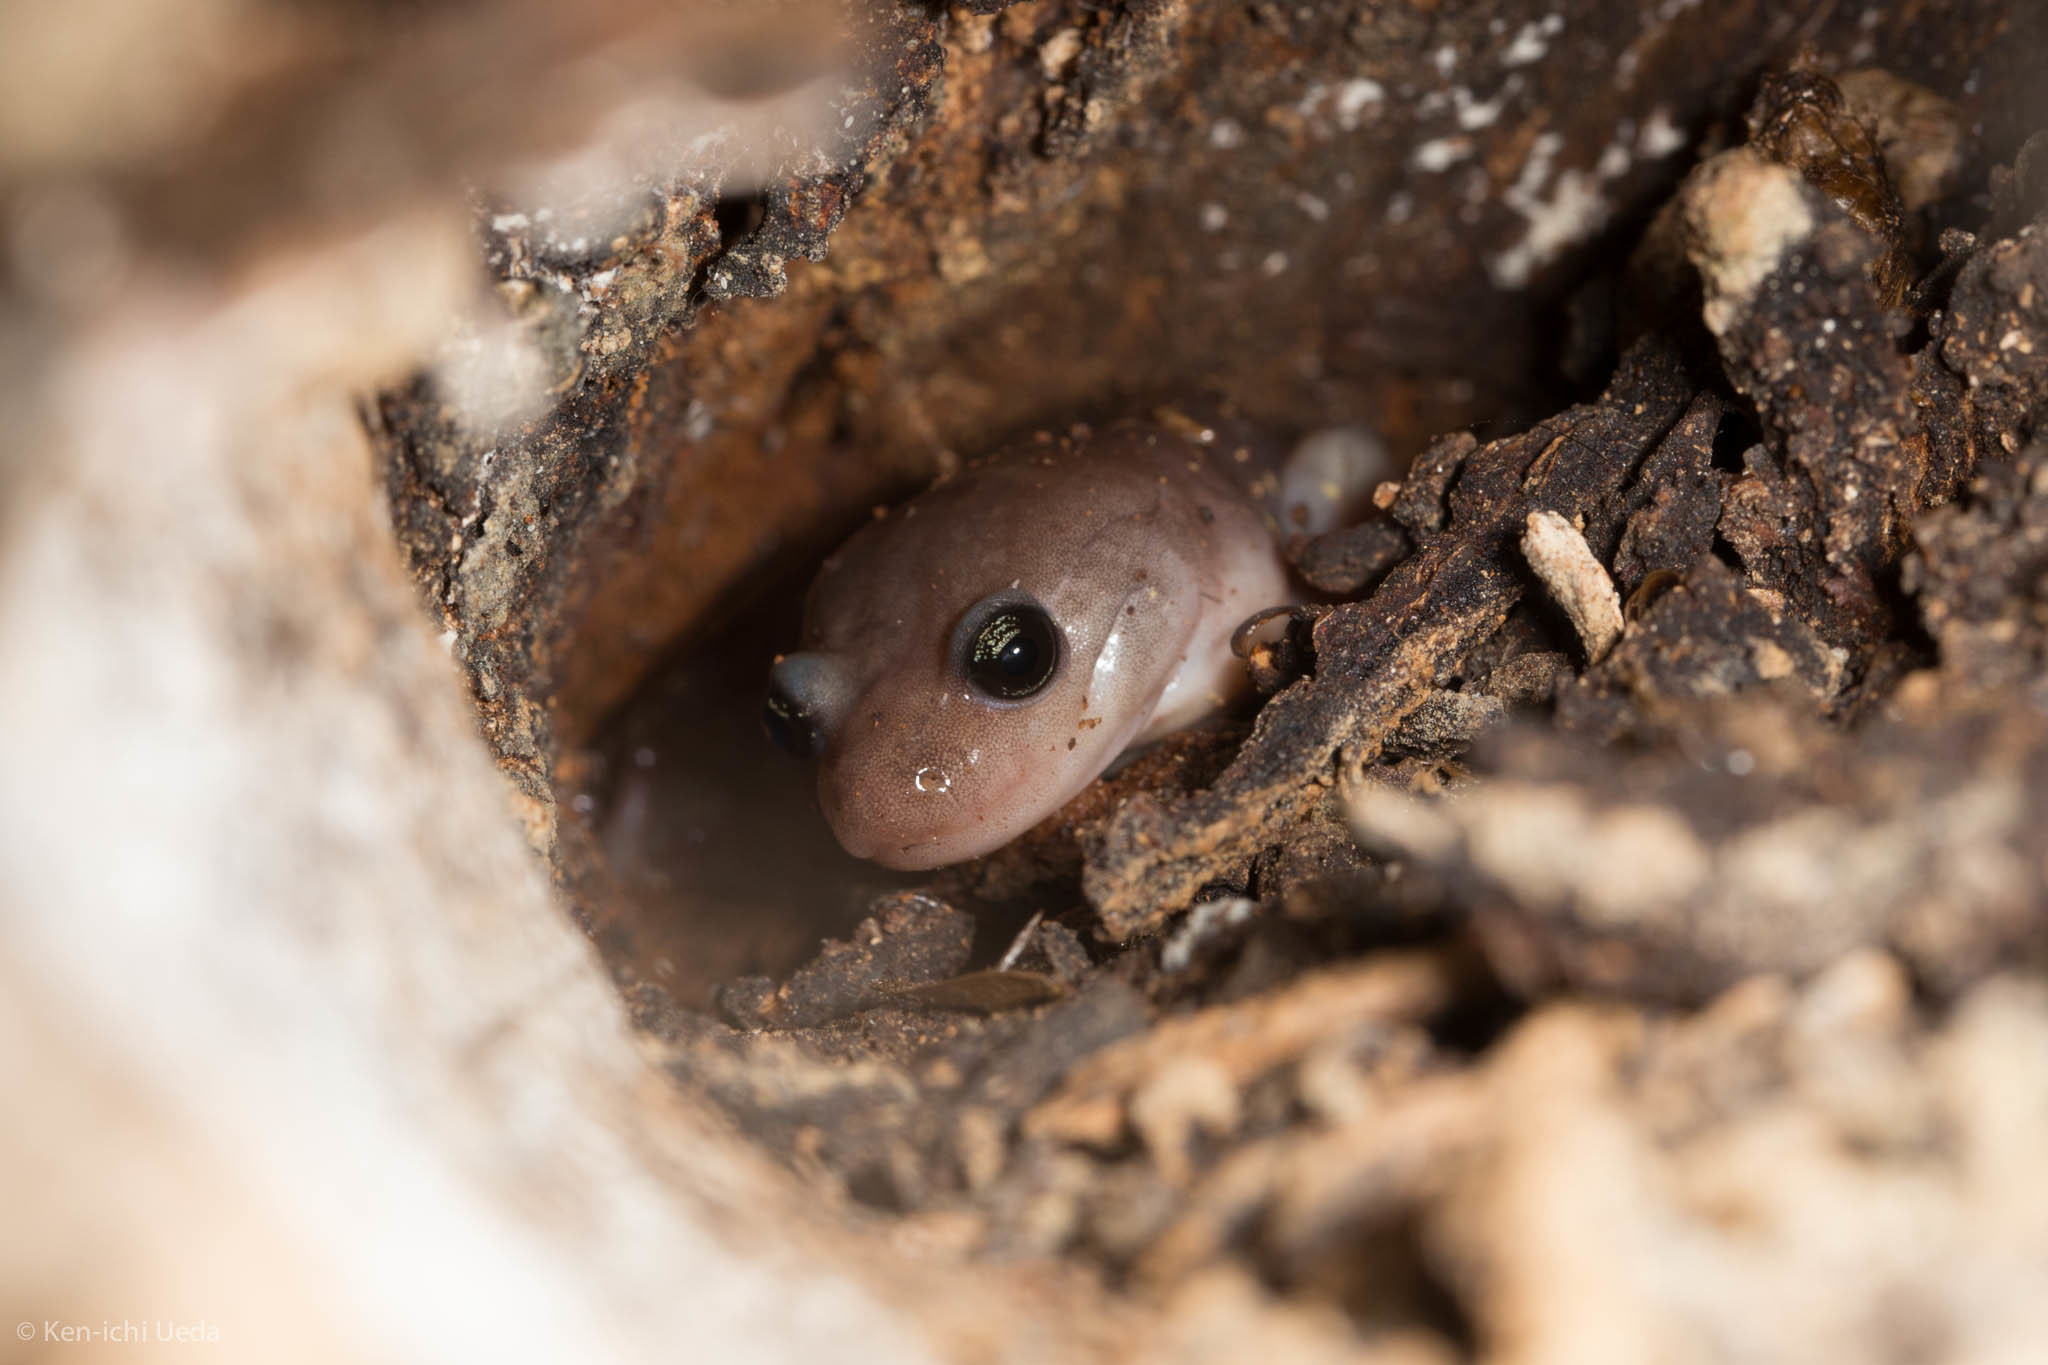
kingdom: Animalia
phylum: Chordata
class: Amphibia
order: Caudata
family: Plethodontidae
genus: Aneides
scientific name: Aneides lugubris
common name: Arboreal salamander
